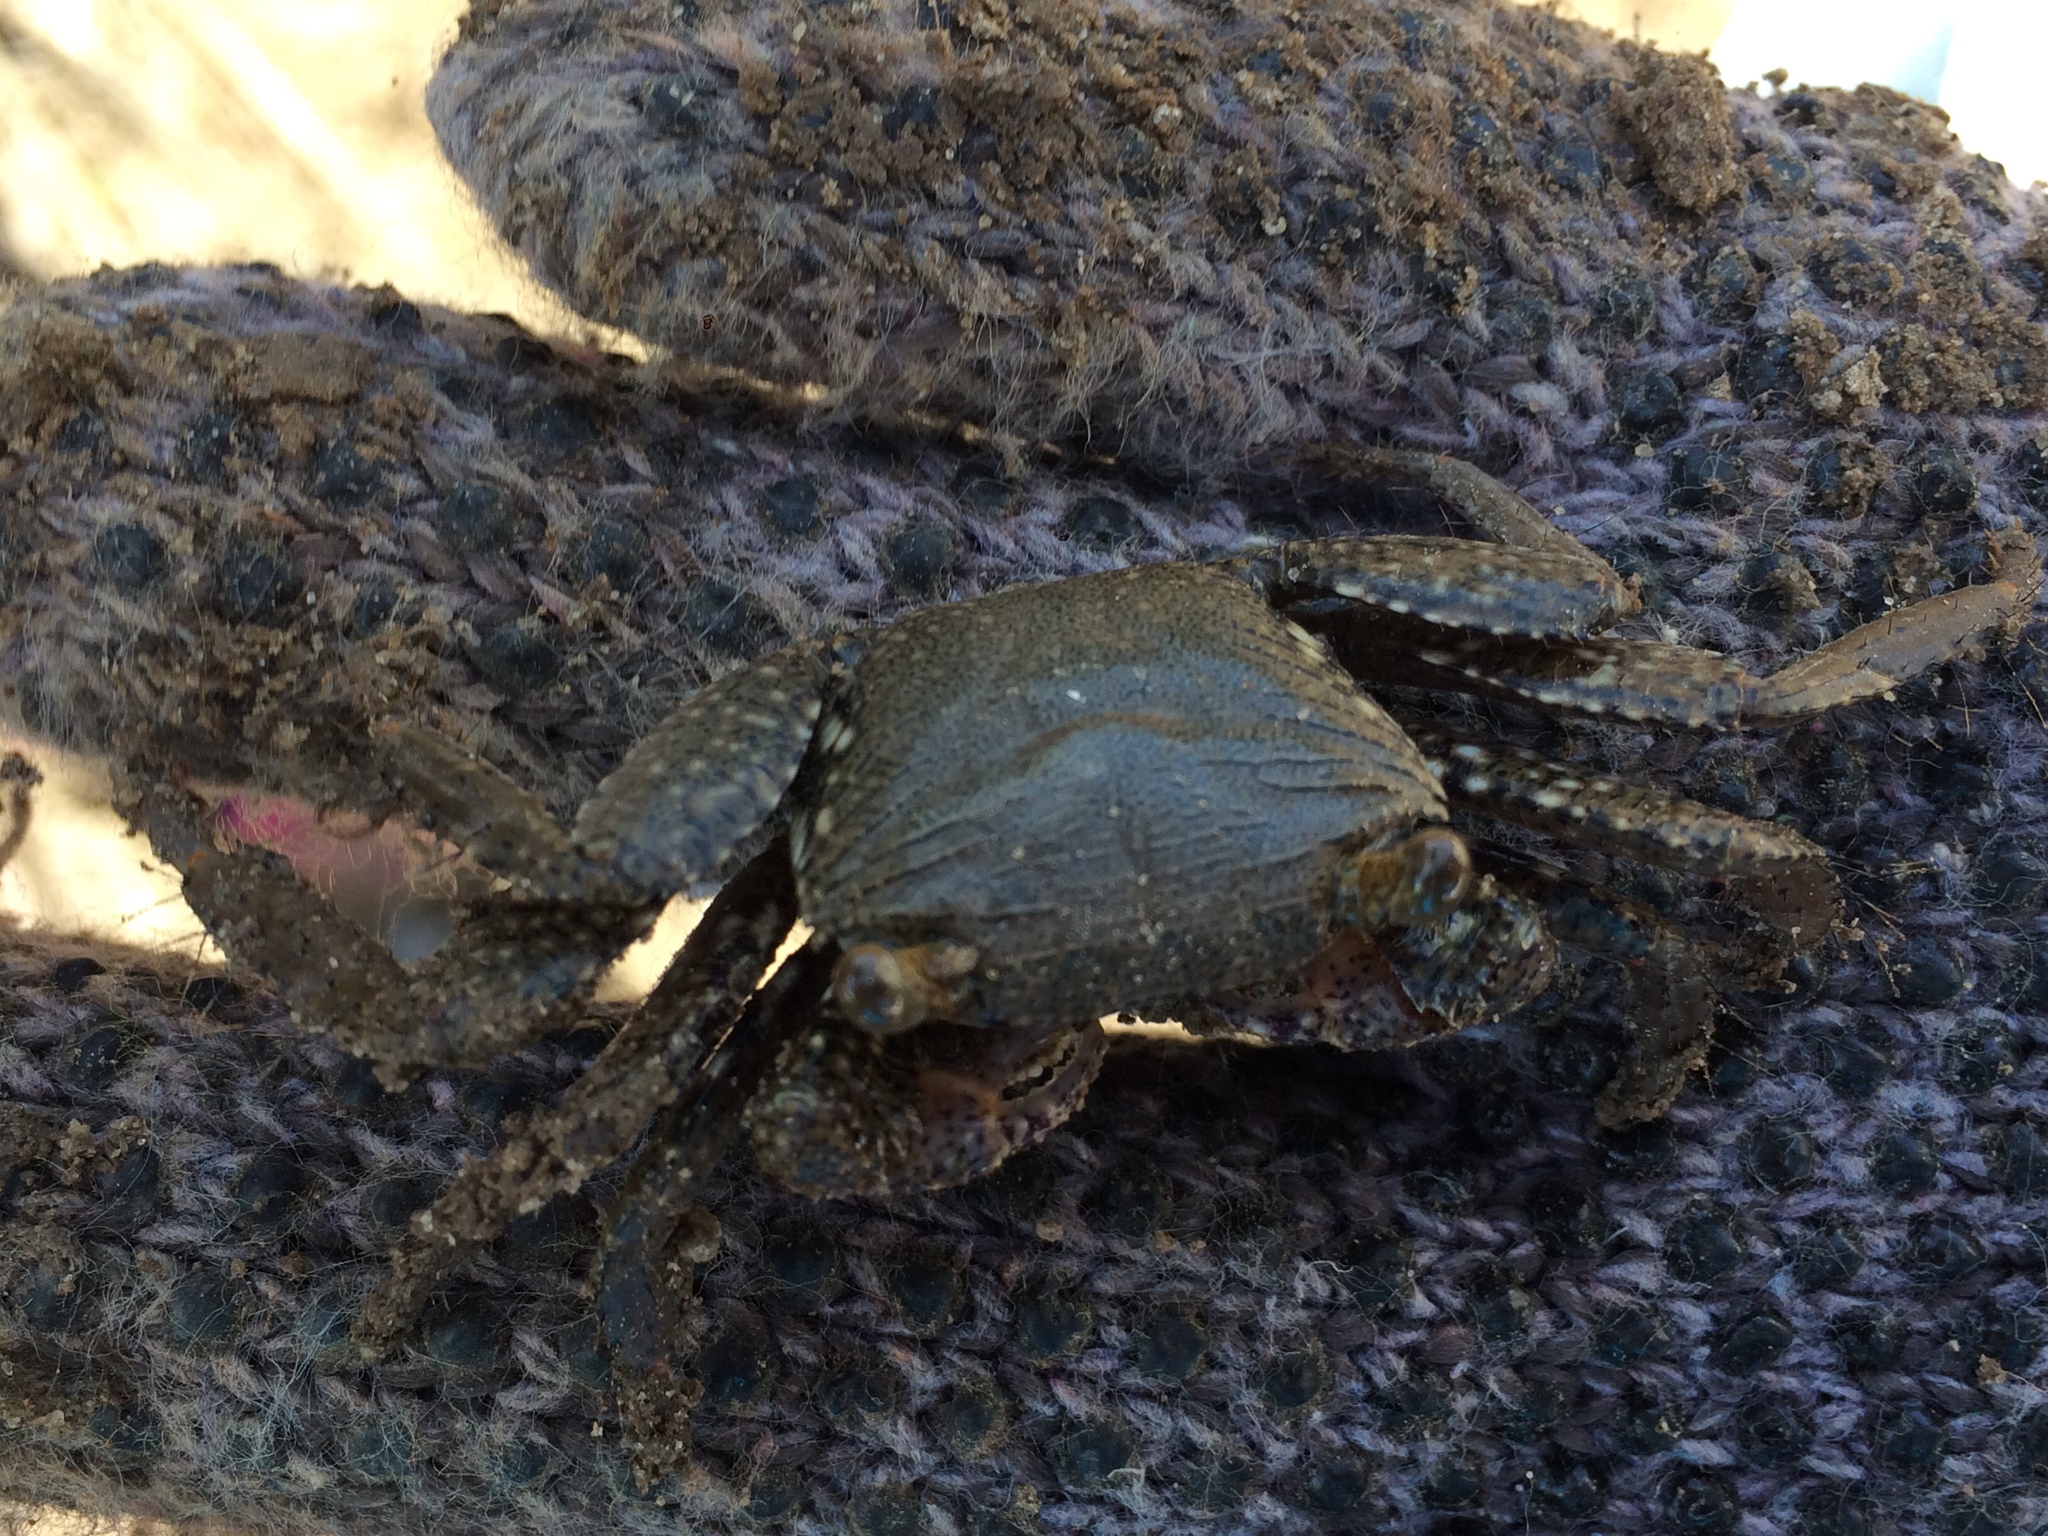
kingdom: Animalia
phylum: Arthropoda
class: Malacostraca
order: Decapoda
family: Grapsidae
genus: Goniopsis
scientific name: Goniopsis cruentata
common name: Mangrove crab
